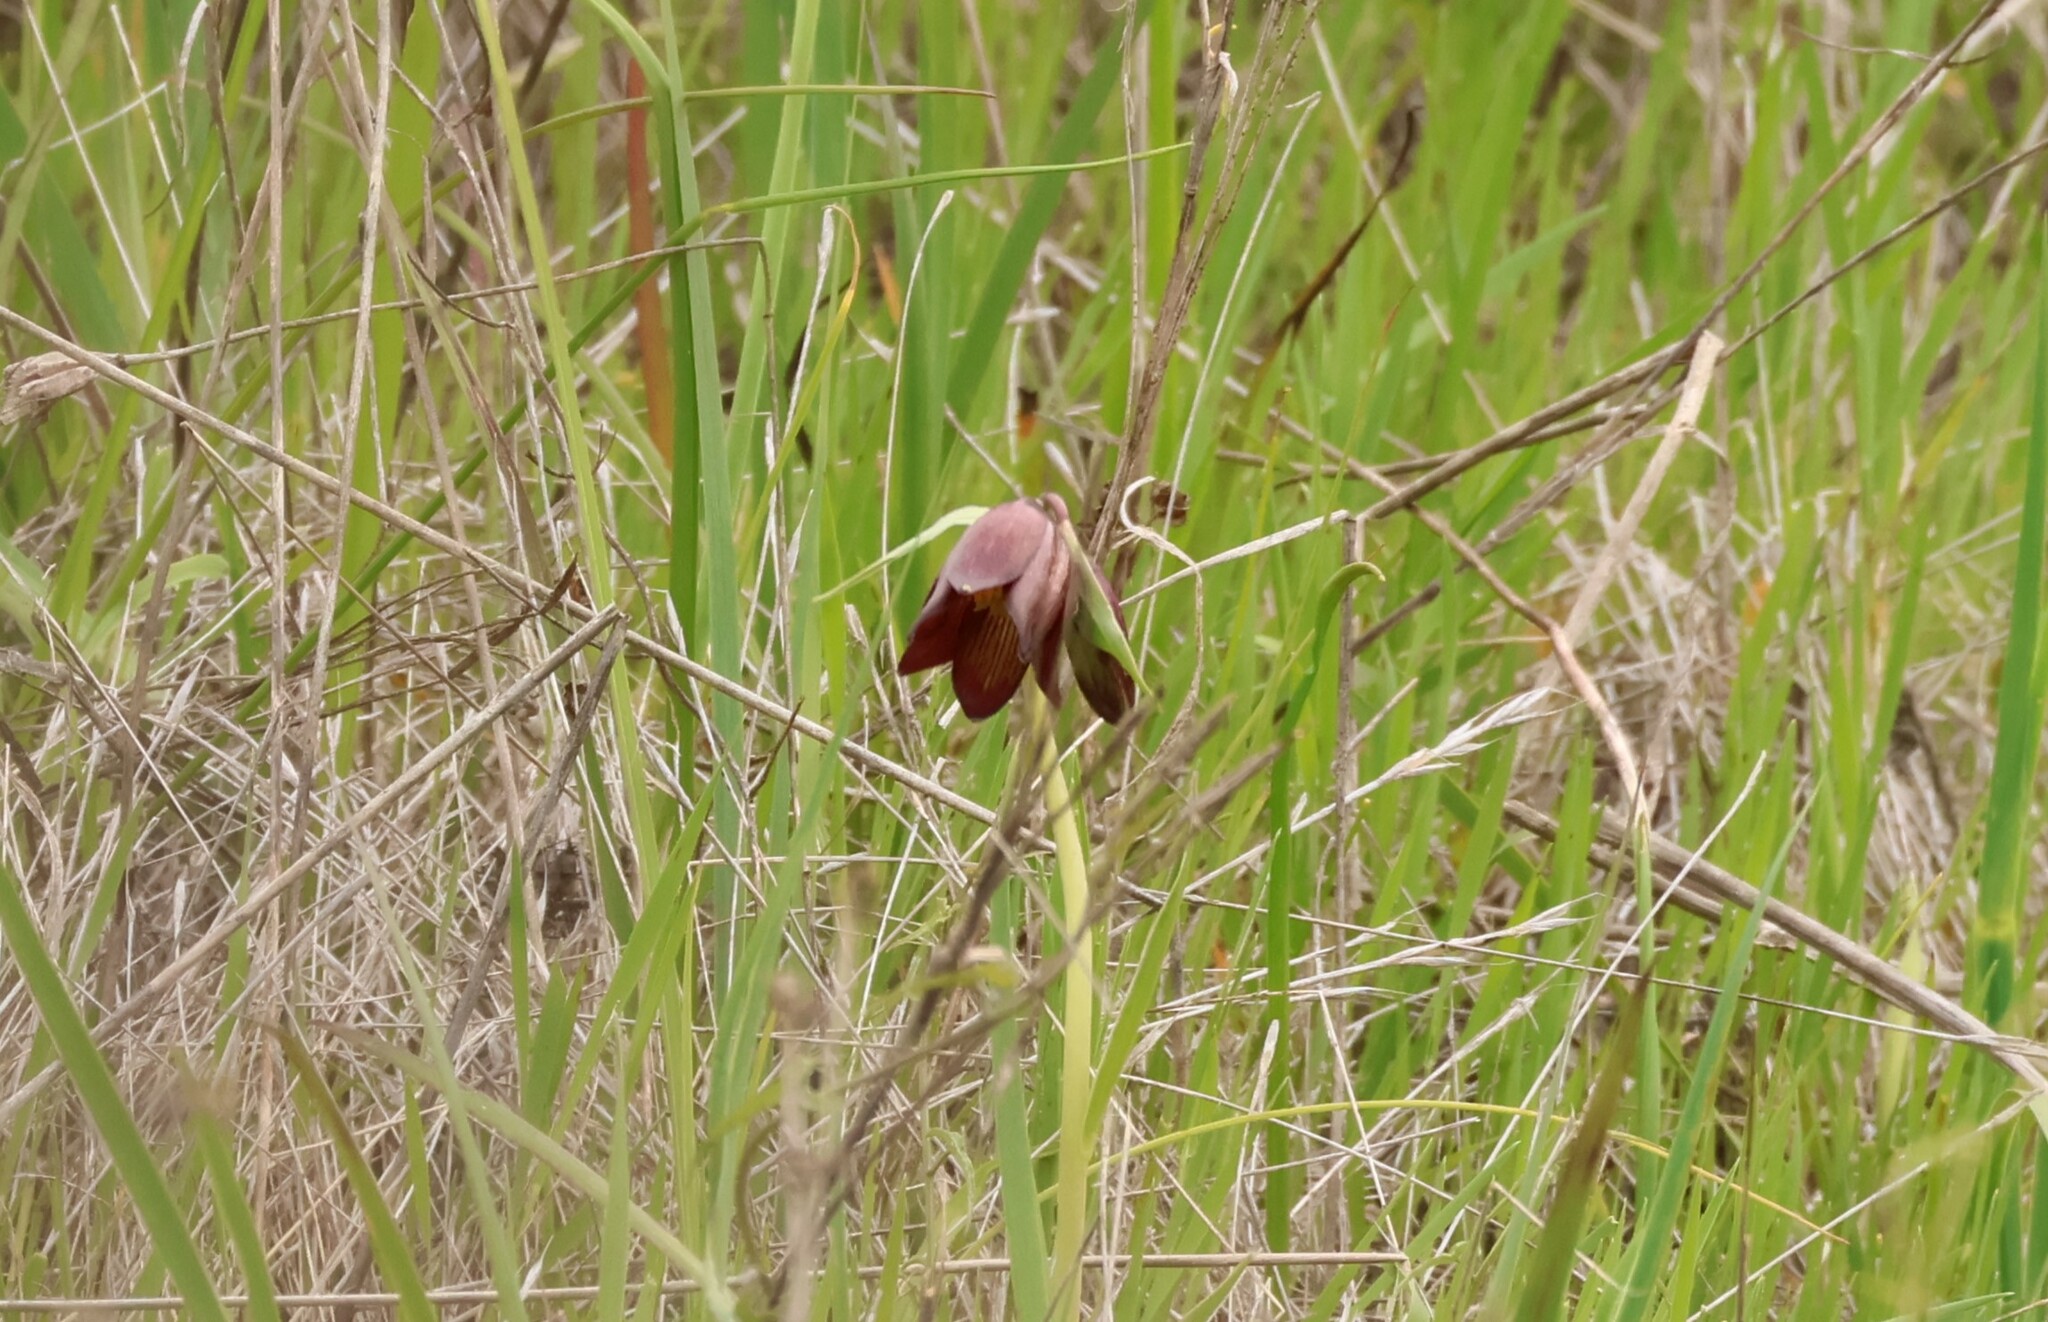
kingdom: Plantae
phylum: Tracheophyta
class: Liliopsida
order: Liliales
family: Liliaceae
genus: Fritillaria
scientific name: Fritillaria biflora
